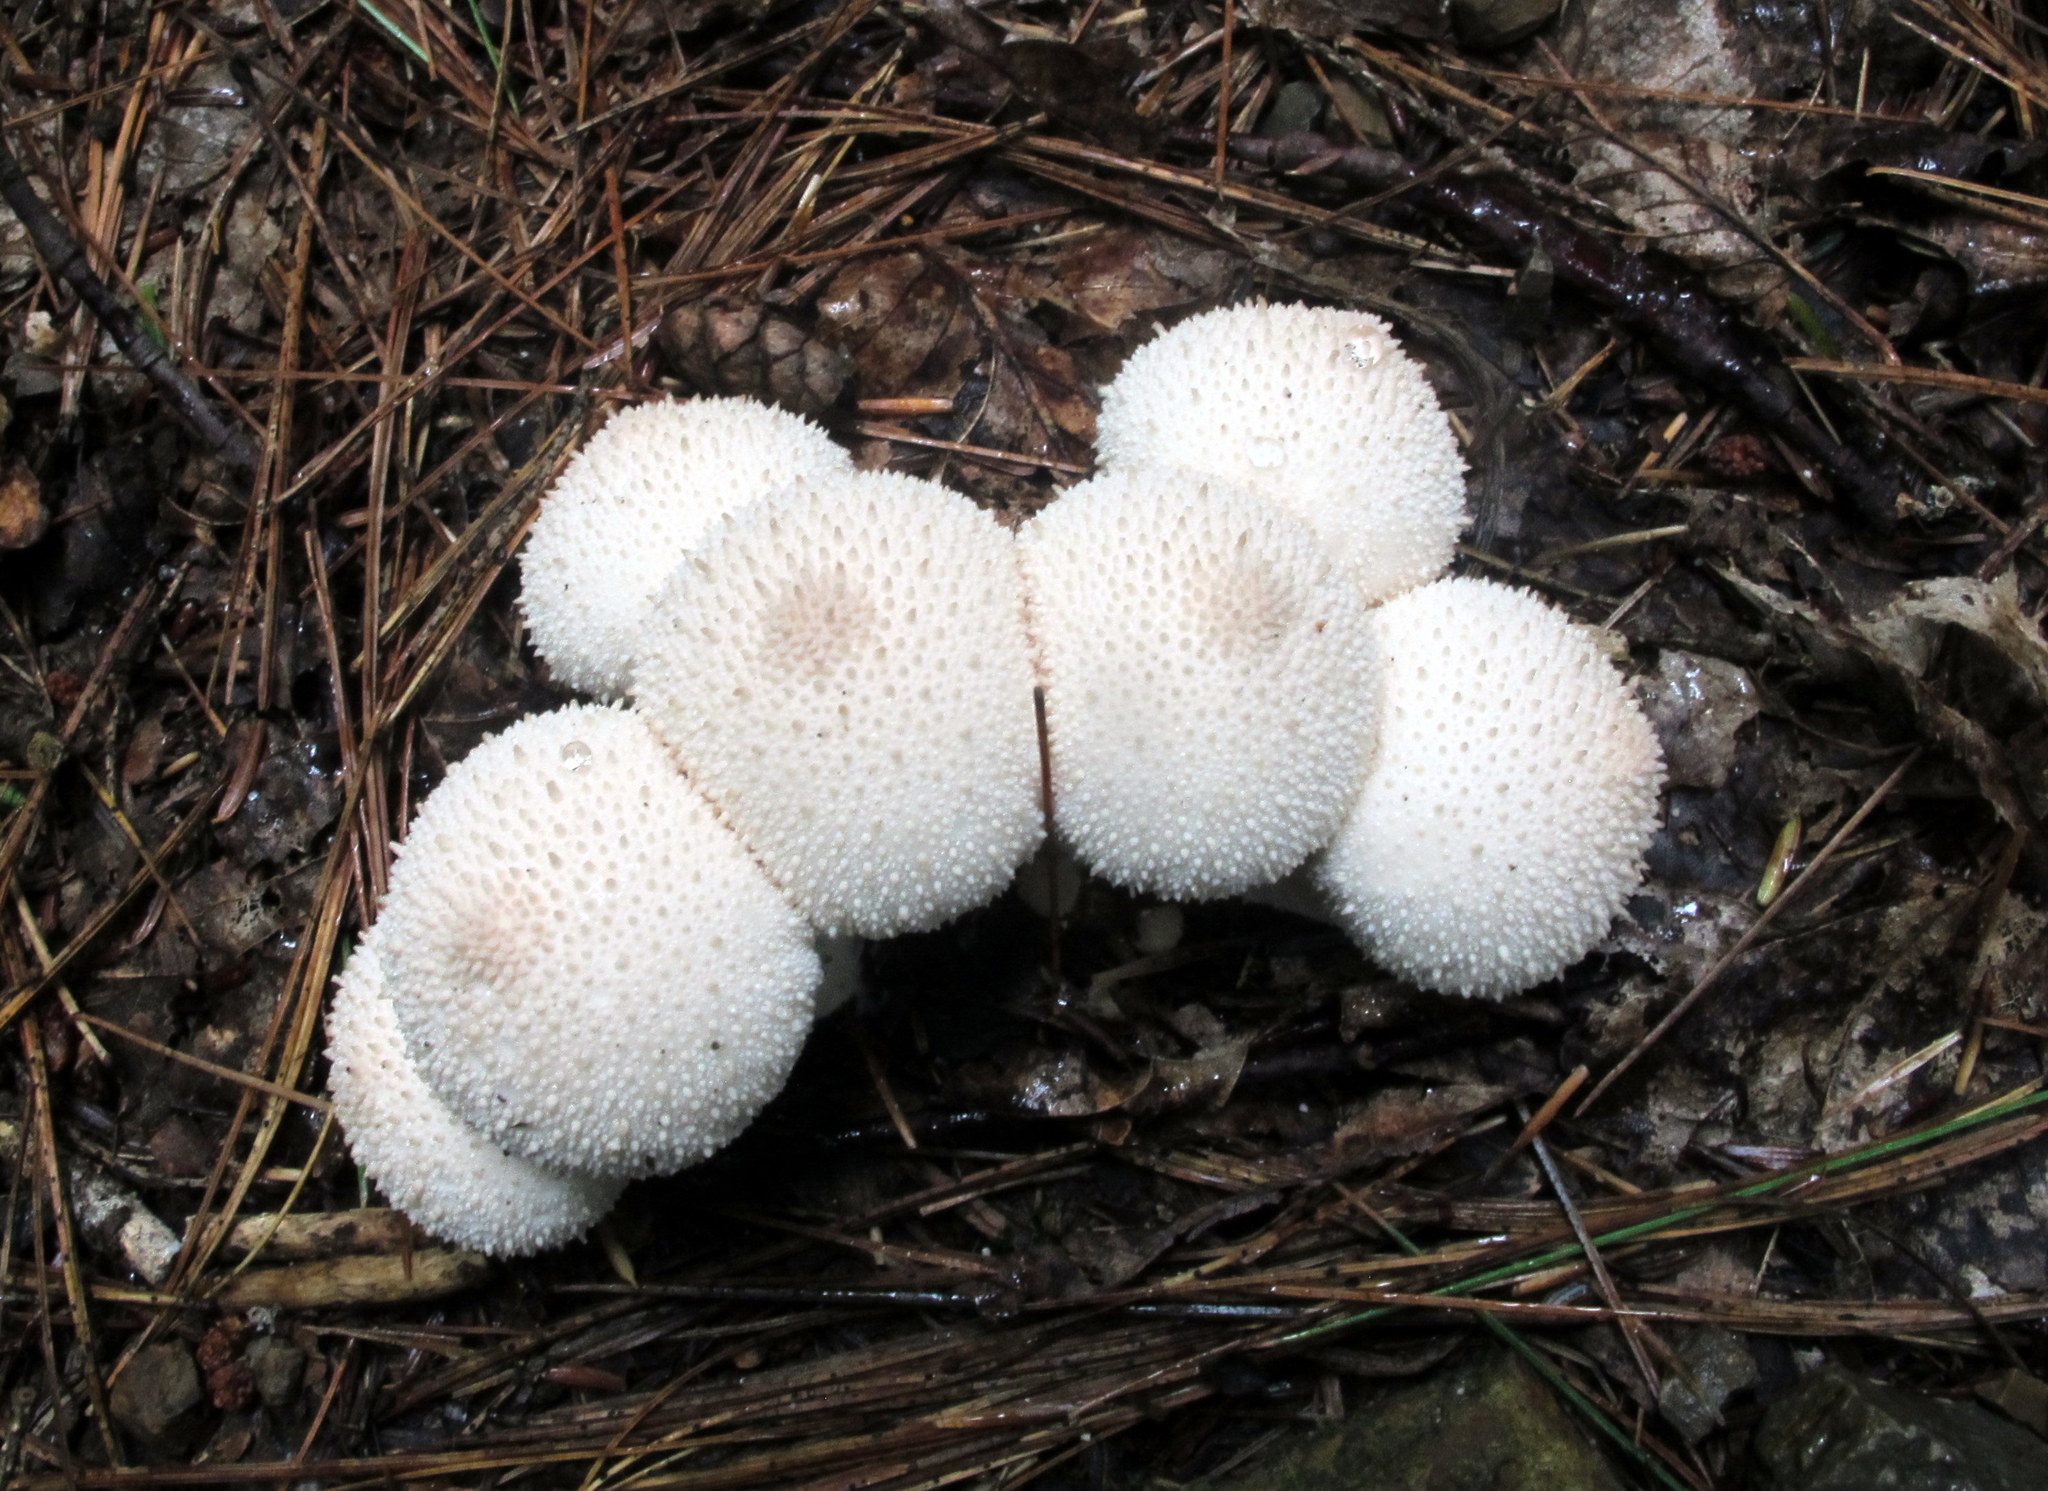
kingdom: Fungi
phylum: Basidiomycota
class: Agaricomycetes
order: Agaricales
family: Lycoperdaceae
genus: Lycoperdon
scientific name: Lycoperdon perlatum
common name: Common puffball
